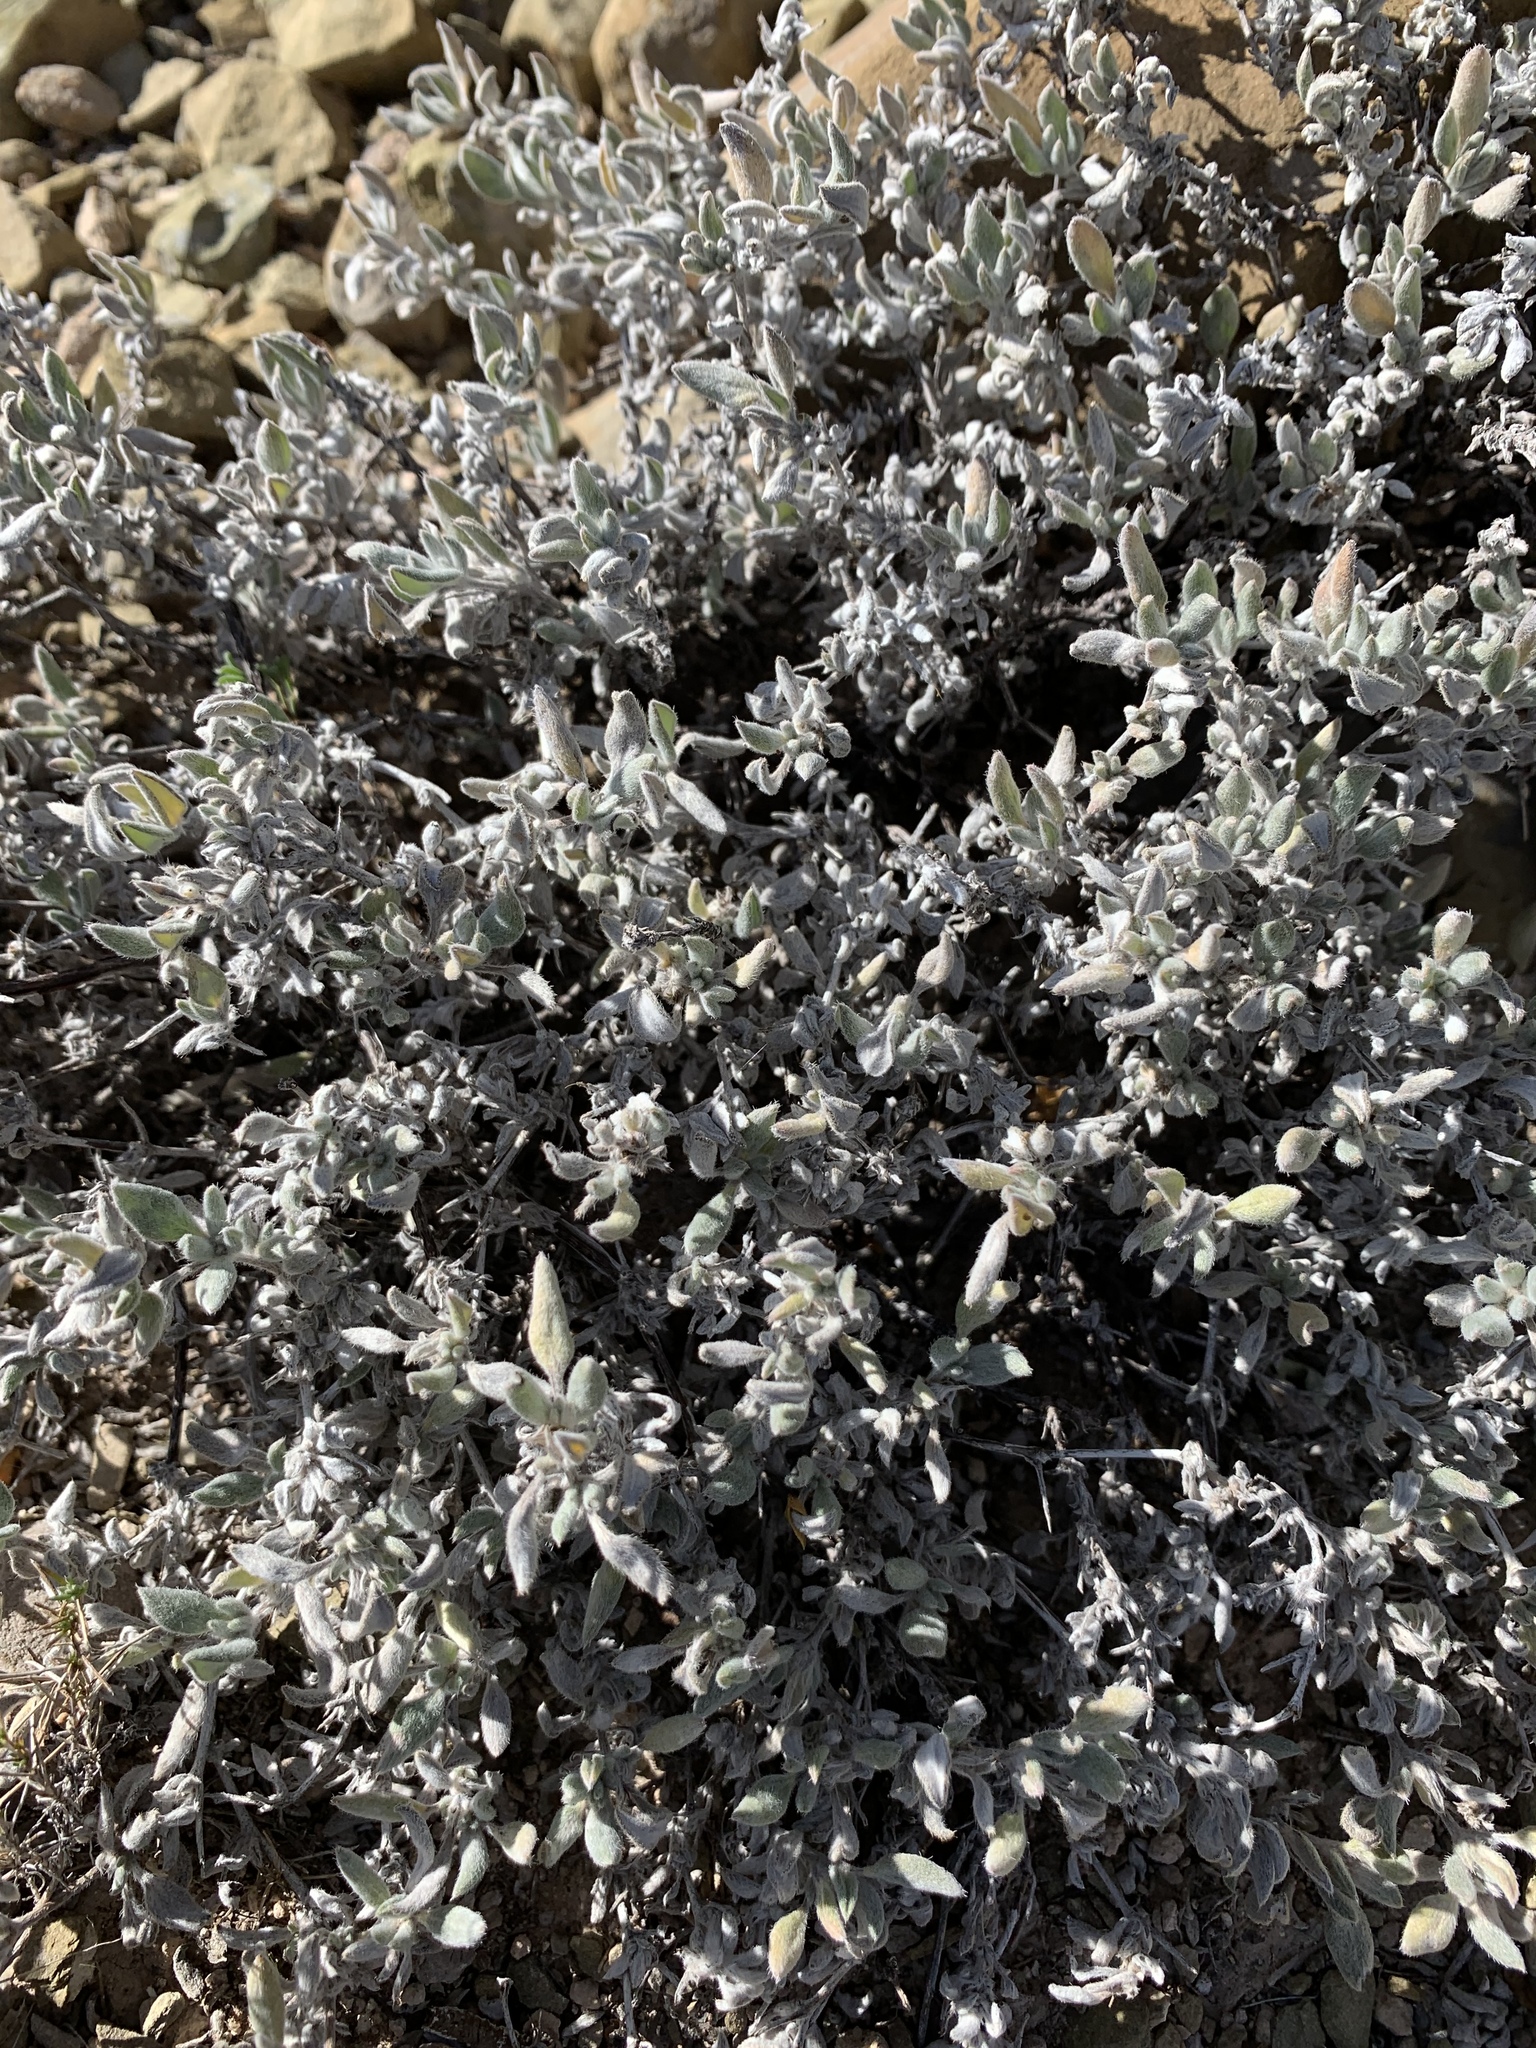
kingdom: Plantae
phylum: Tracheophyta
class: Magnoliopsida
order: Boraginales
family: Ehretiaceae
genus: Tiquilia
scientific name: Tiquilia canescens
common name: Hairy tiquilia
